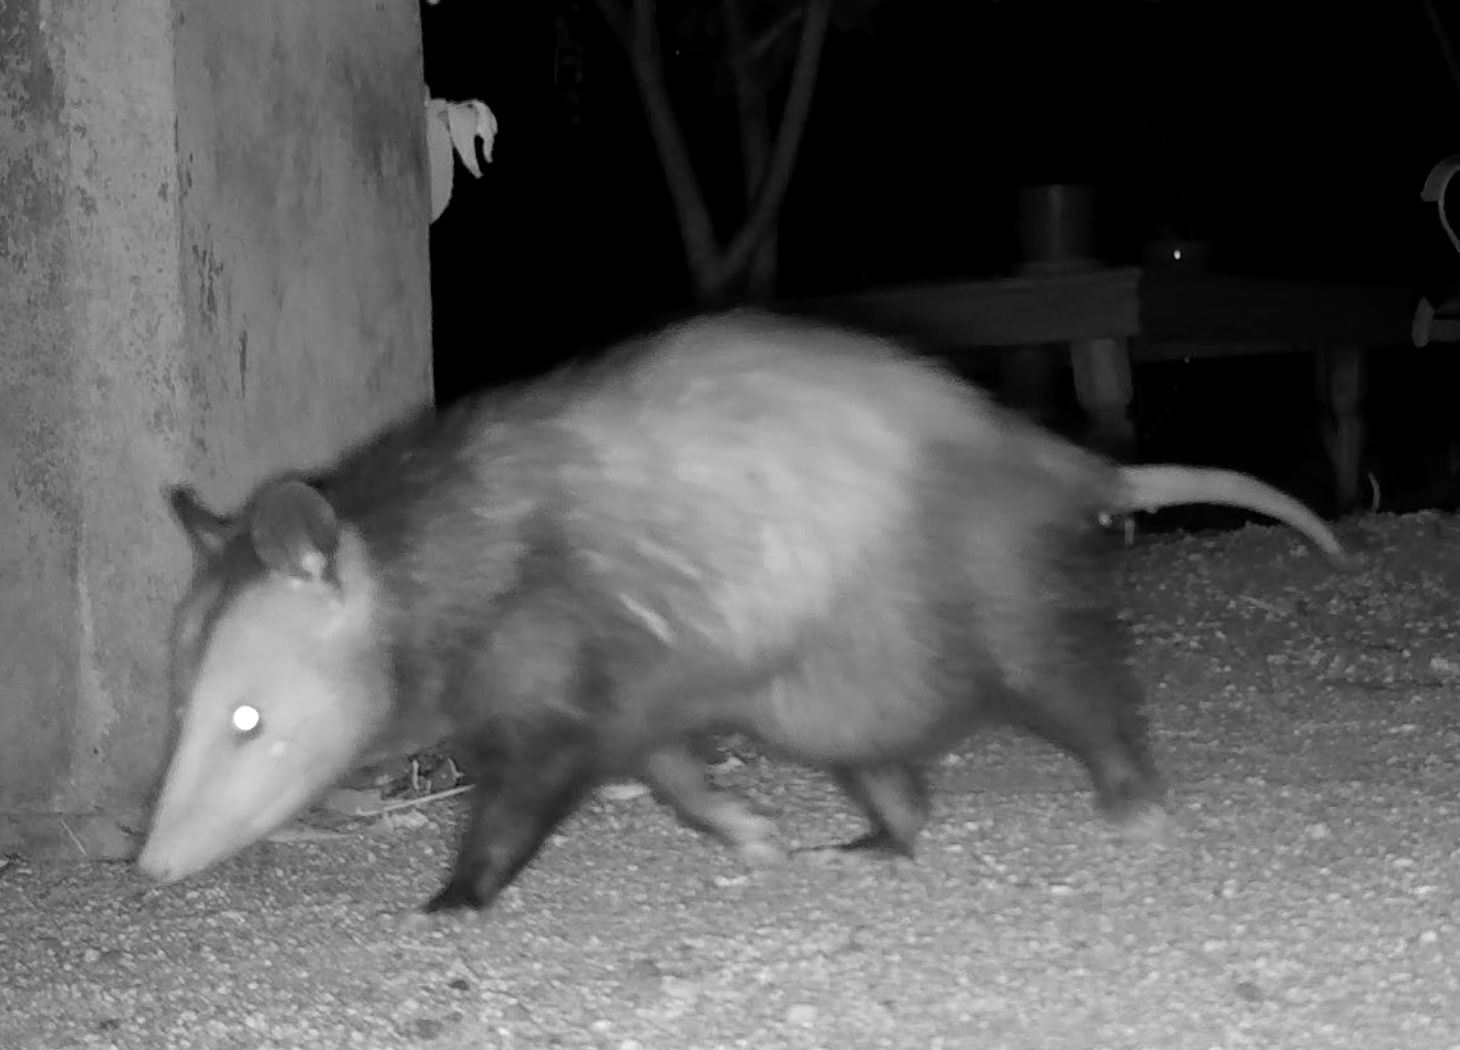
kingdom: Animalia
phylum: Chordata
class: Mammalia
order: Didelphimorphia
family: Didelphidae
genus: Didelphis
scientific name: Didelphis virginiana
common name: Virginia opossum
